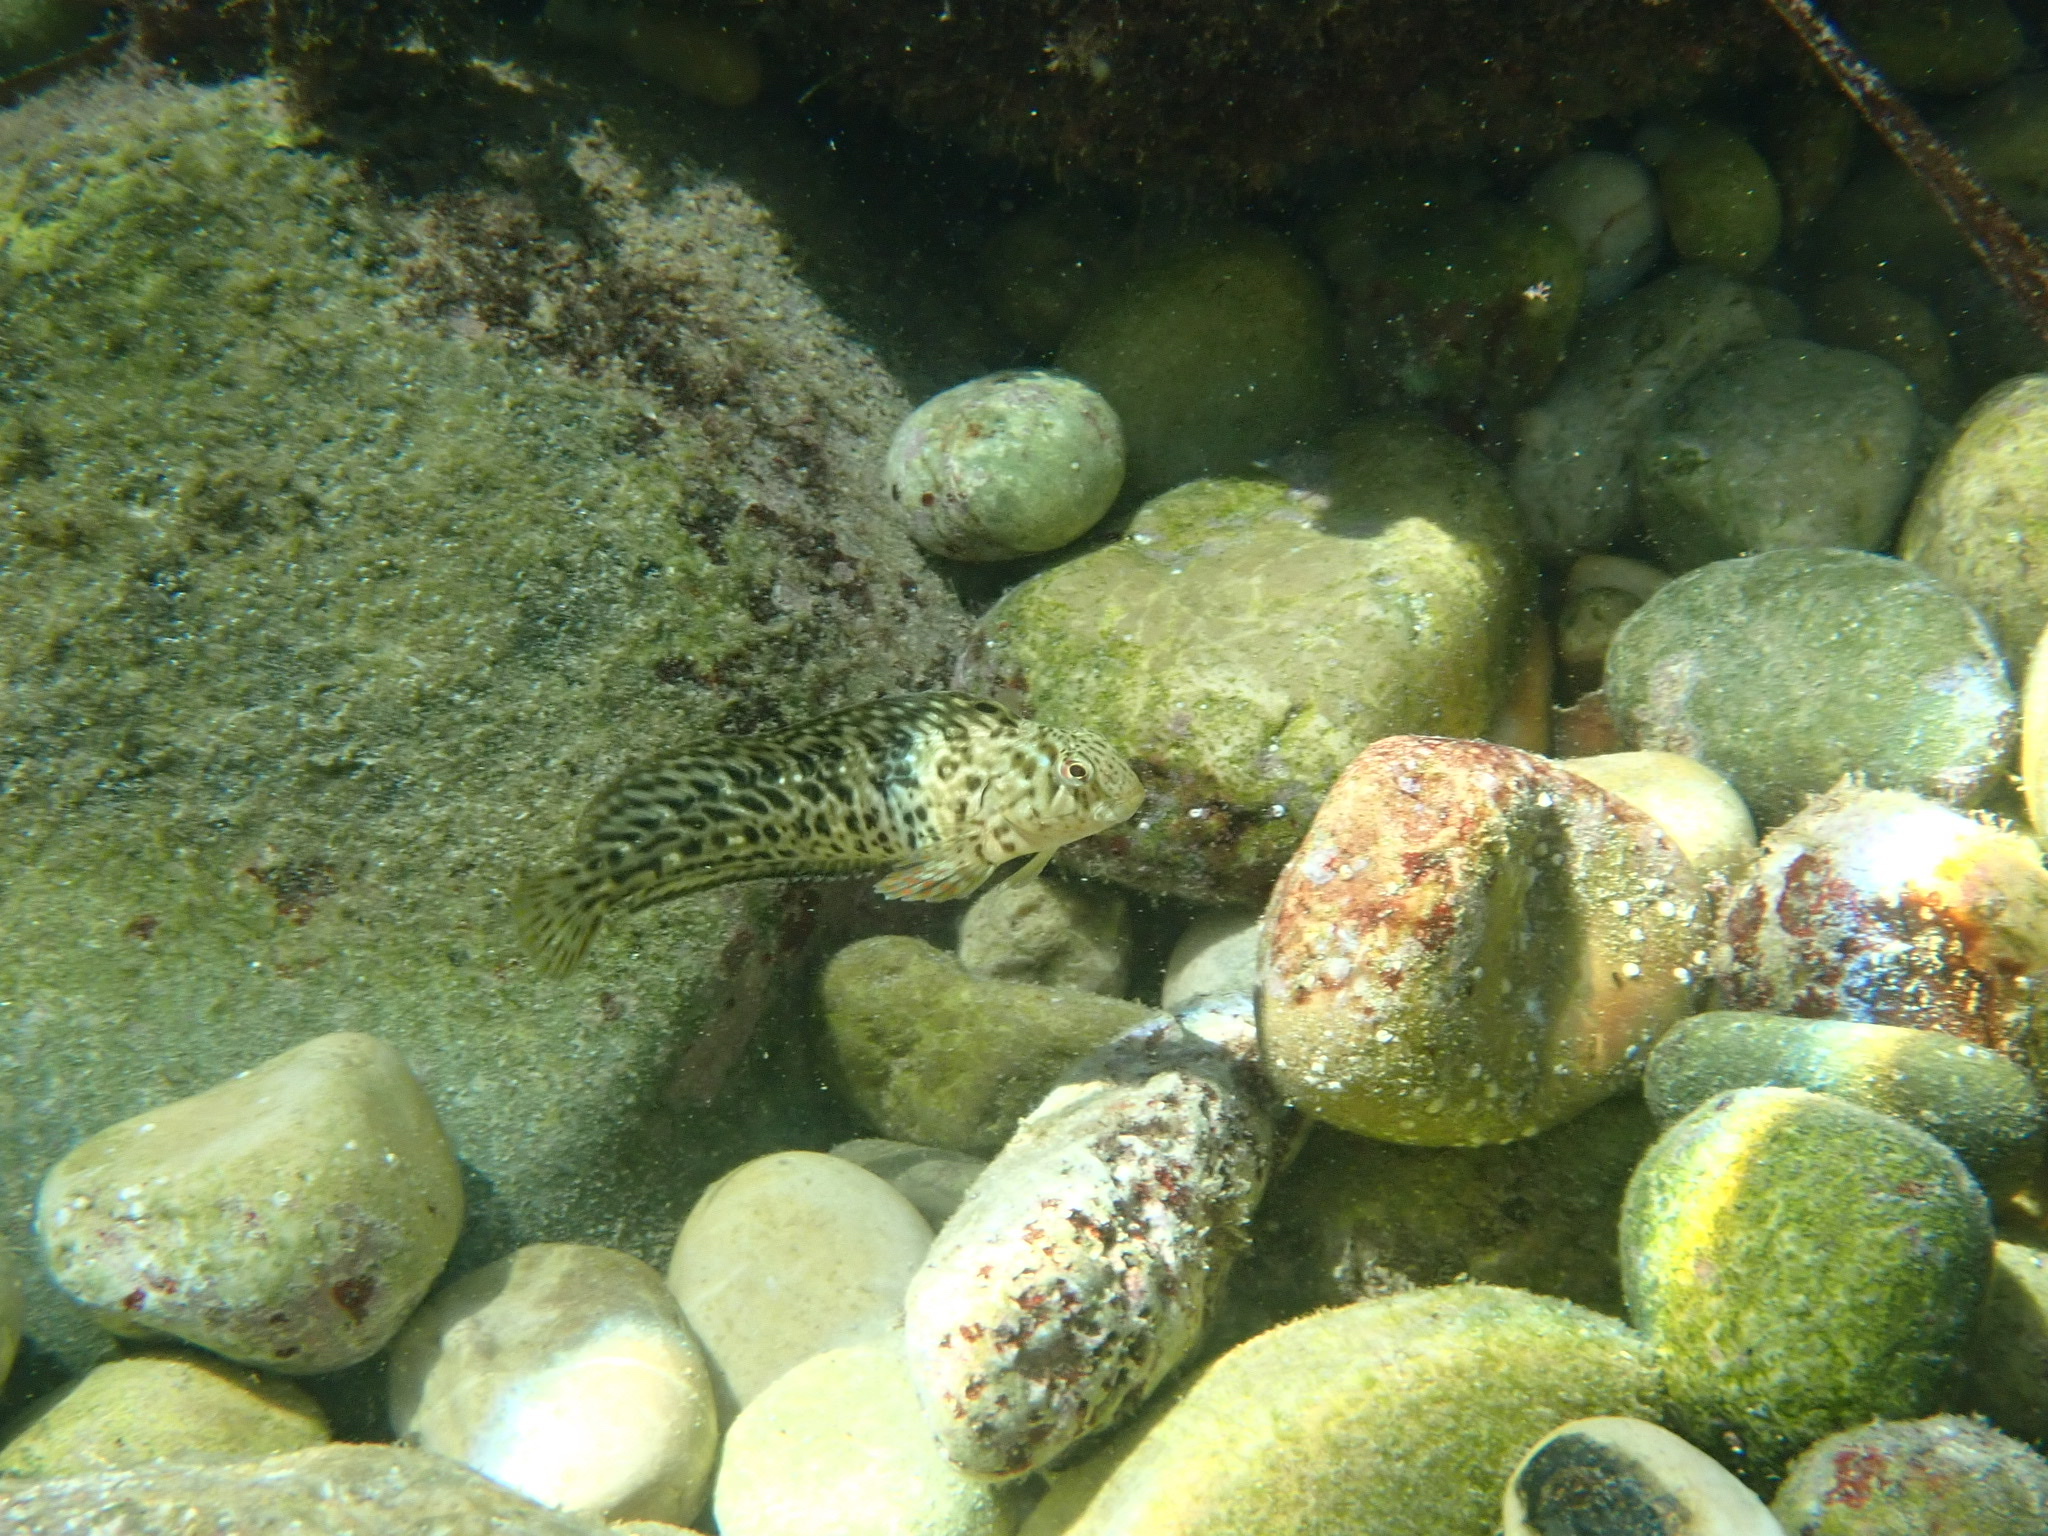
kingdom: Animalia
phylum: Chordata
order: Perciformes
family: Blenniidae
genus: Parablennius
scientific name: Parablennius sanguinolentus
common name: Black sea blenny
